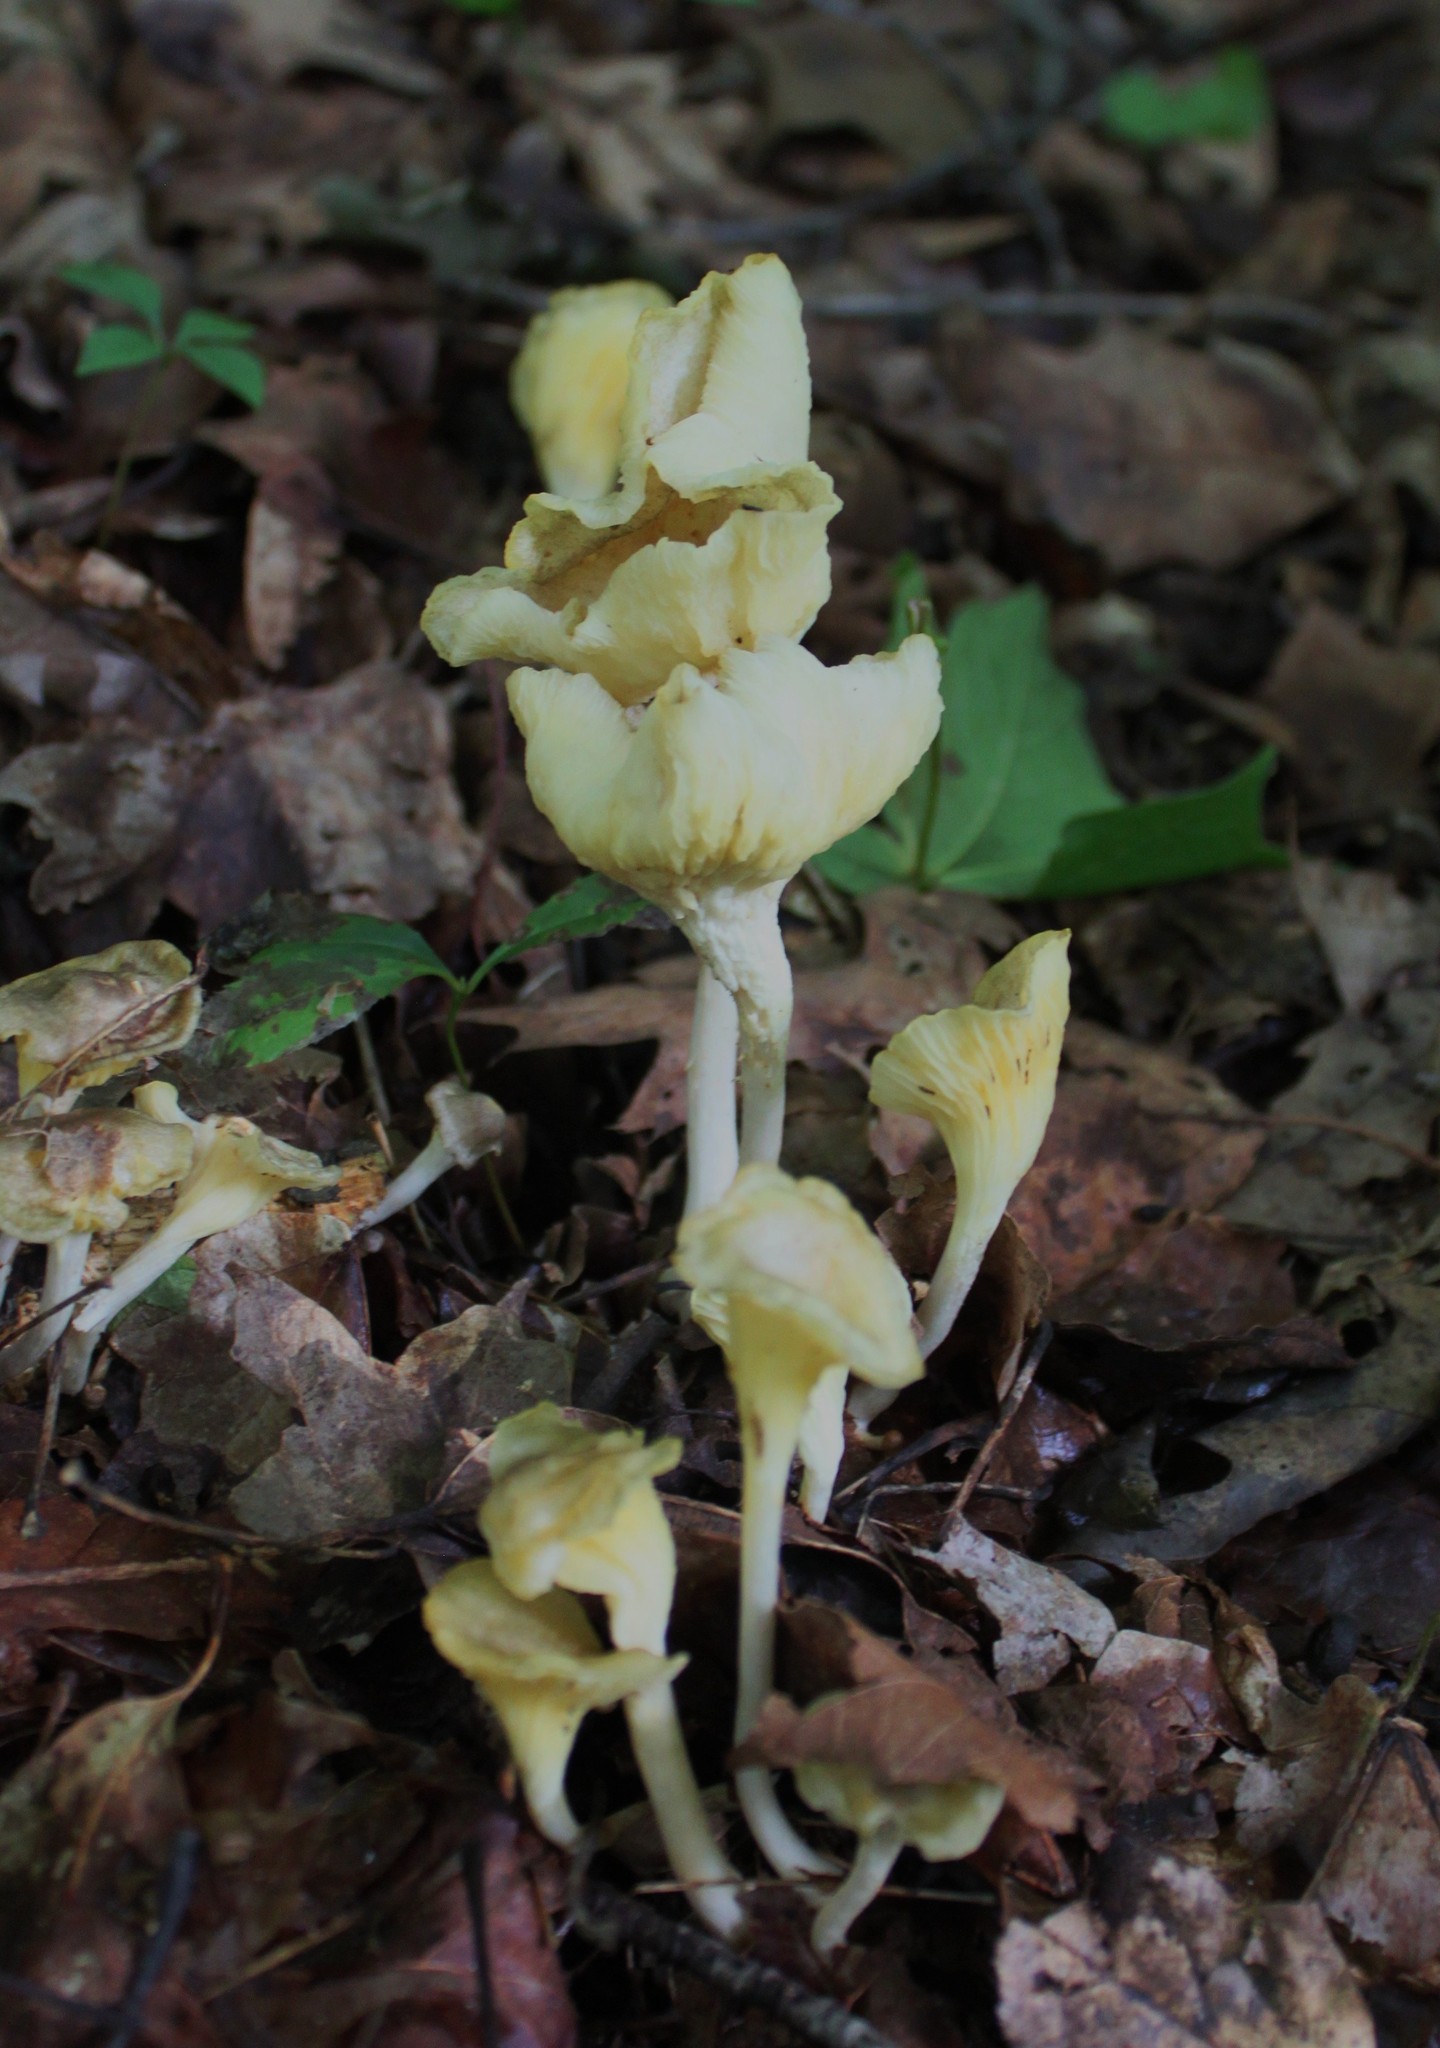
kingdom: Fungi
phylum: Basidiomycota
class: Agaricomycetes
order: Agaricales
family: Marasmiaceae
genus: Gerronema
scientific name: Gerronema strombodes
